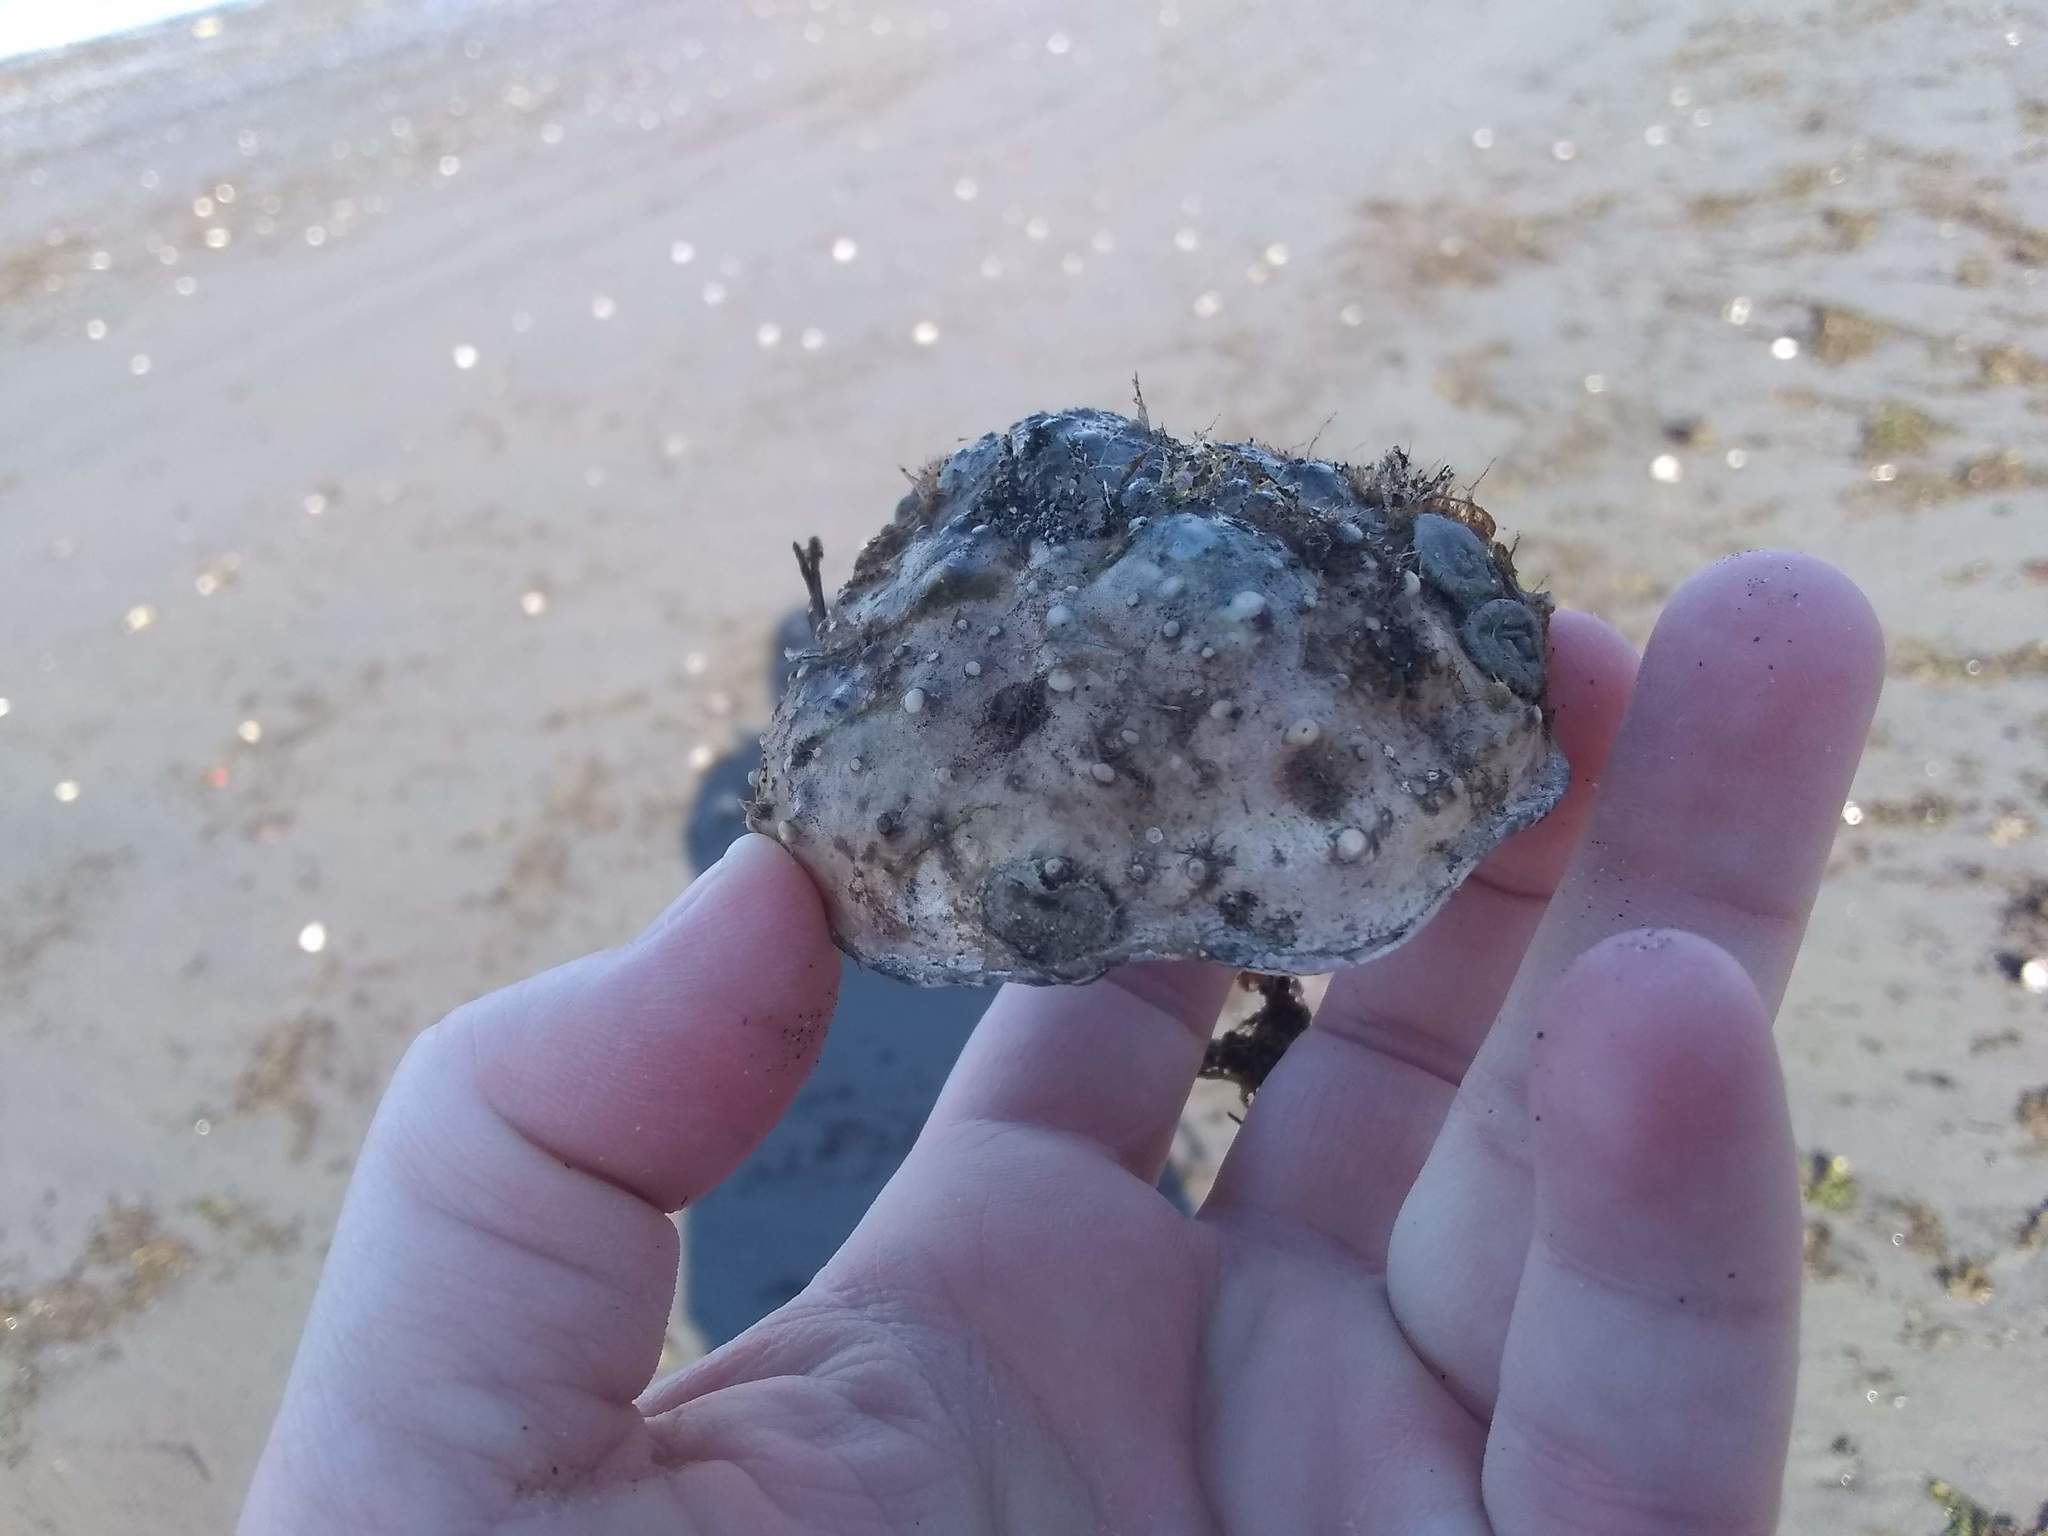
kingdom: Animalia
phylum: Arthropoda
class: Malacostraca
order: Decapoda
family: Epialtidae
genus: Libinia
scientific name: Libinia emarginata
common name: Common spider crab
